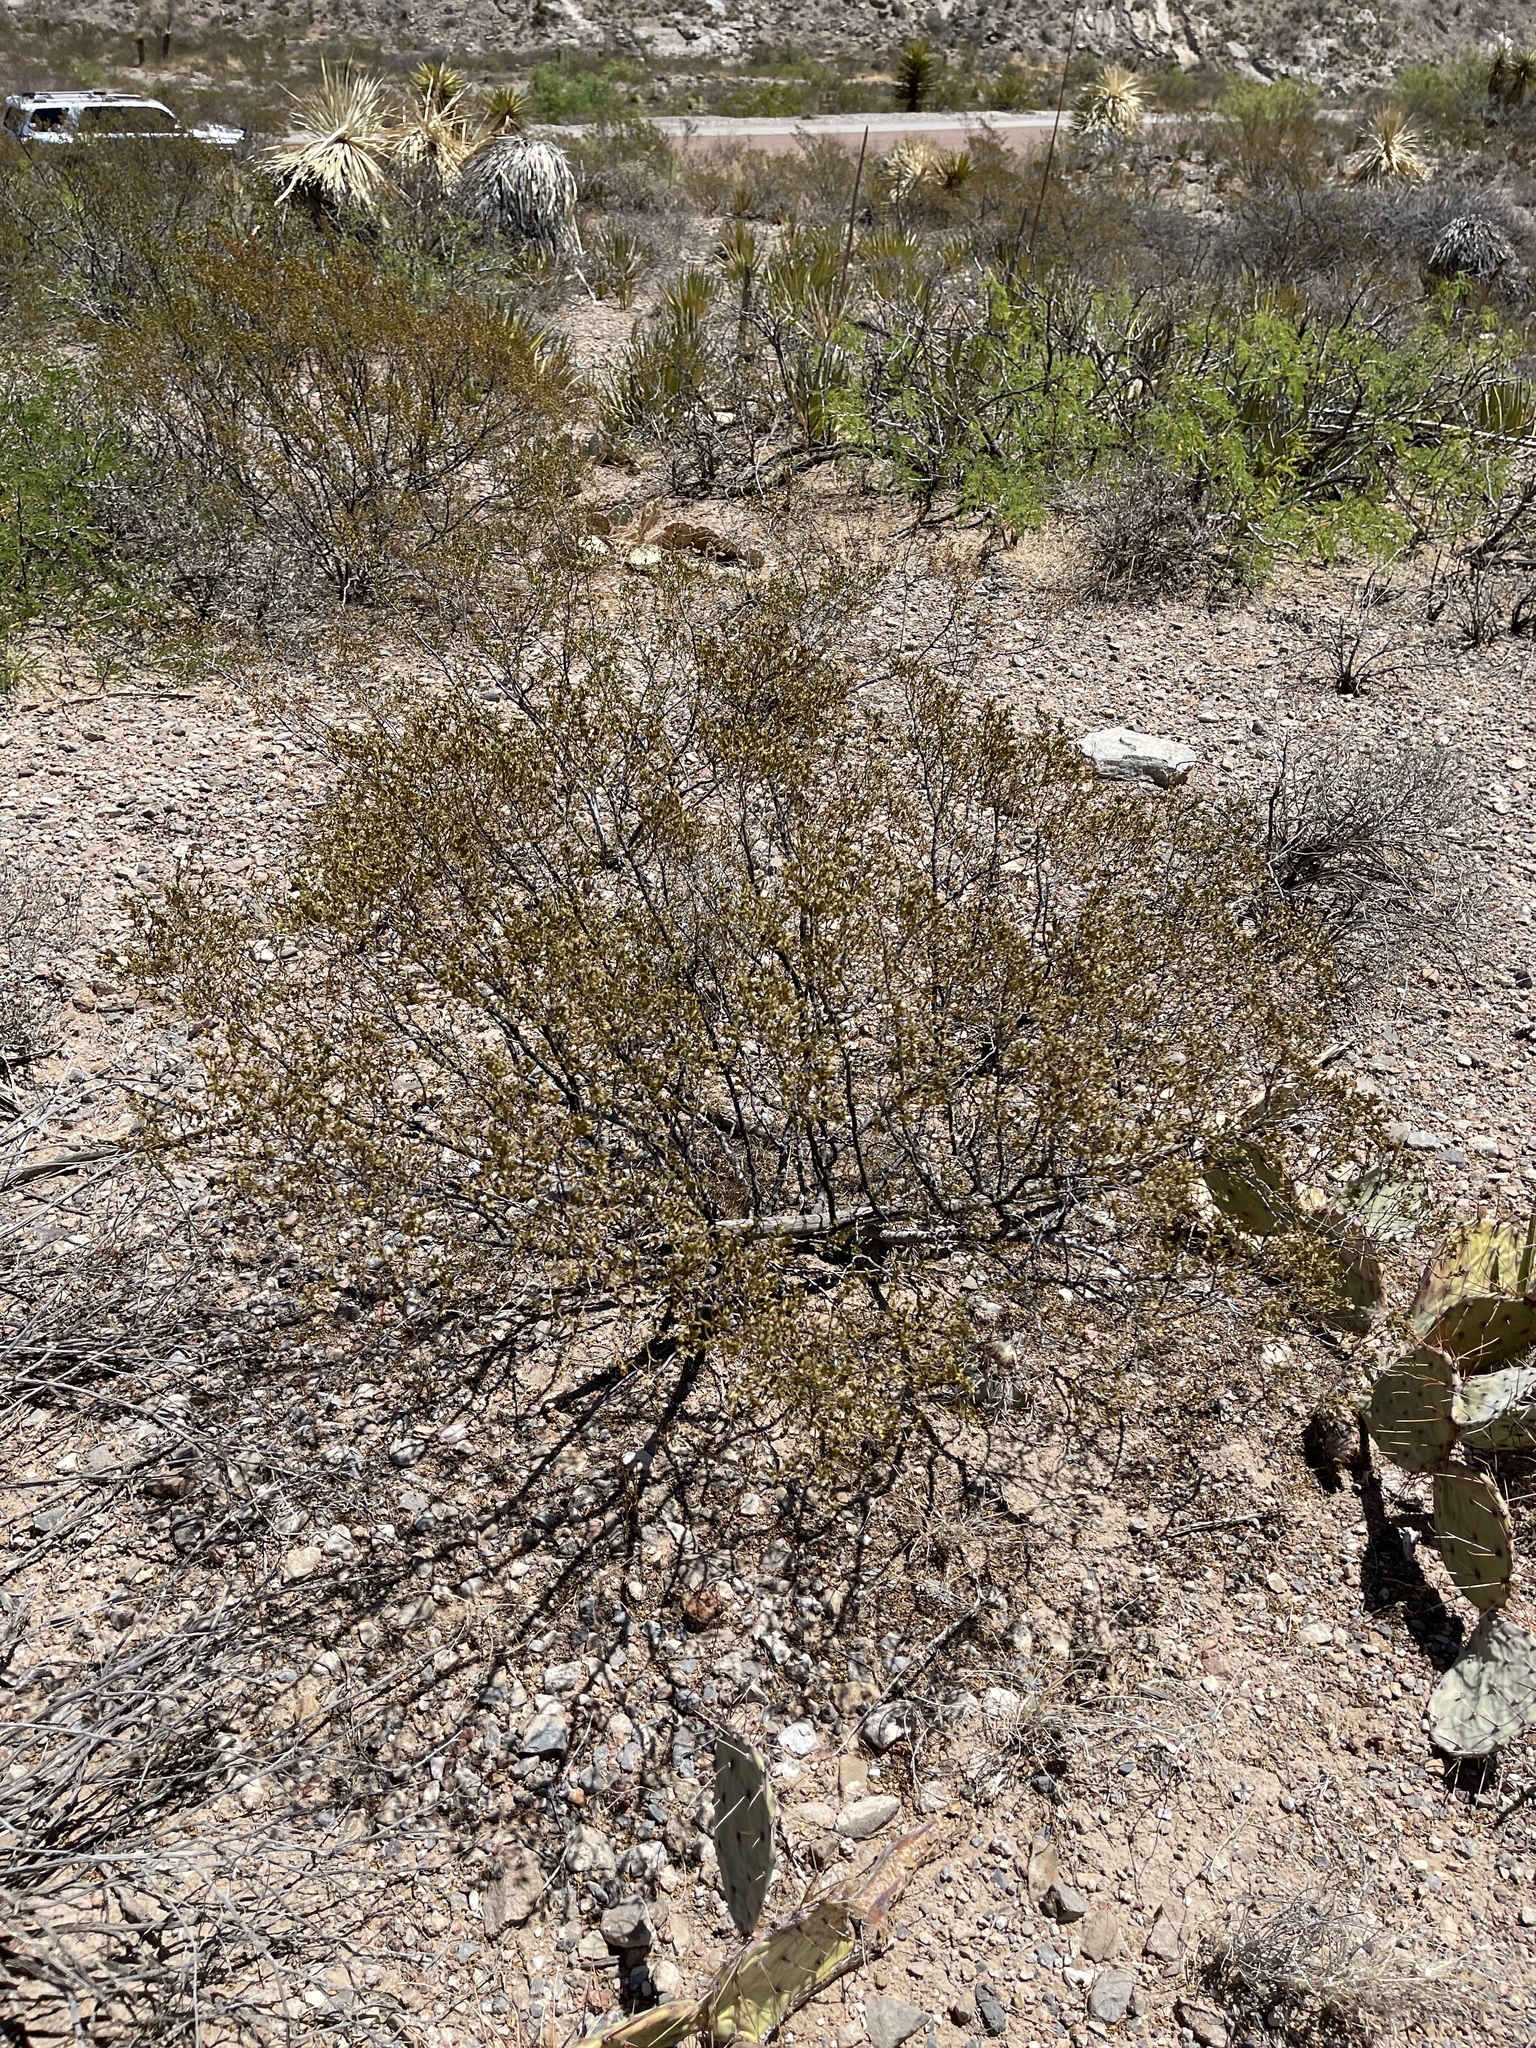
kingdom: Plantae
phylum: Tracheophyta
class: Magnoliopsida
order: Zygophyllales
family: Zygophyllaceae
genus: Larrea
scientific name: Larrea tridentata
